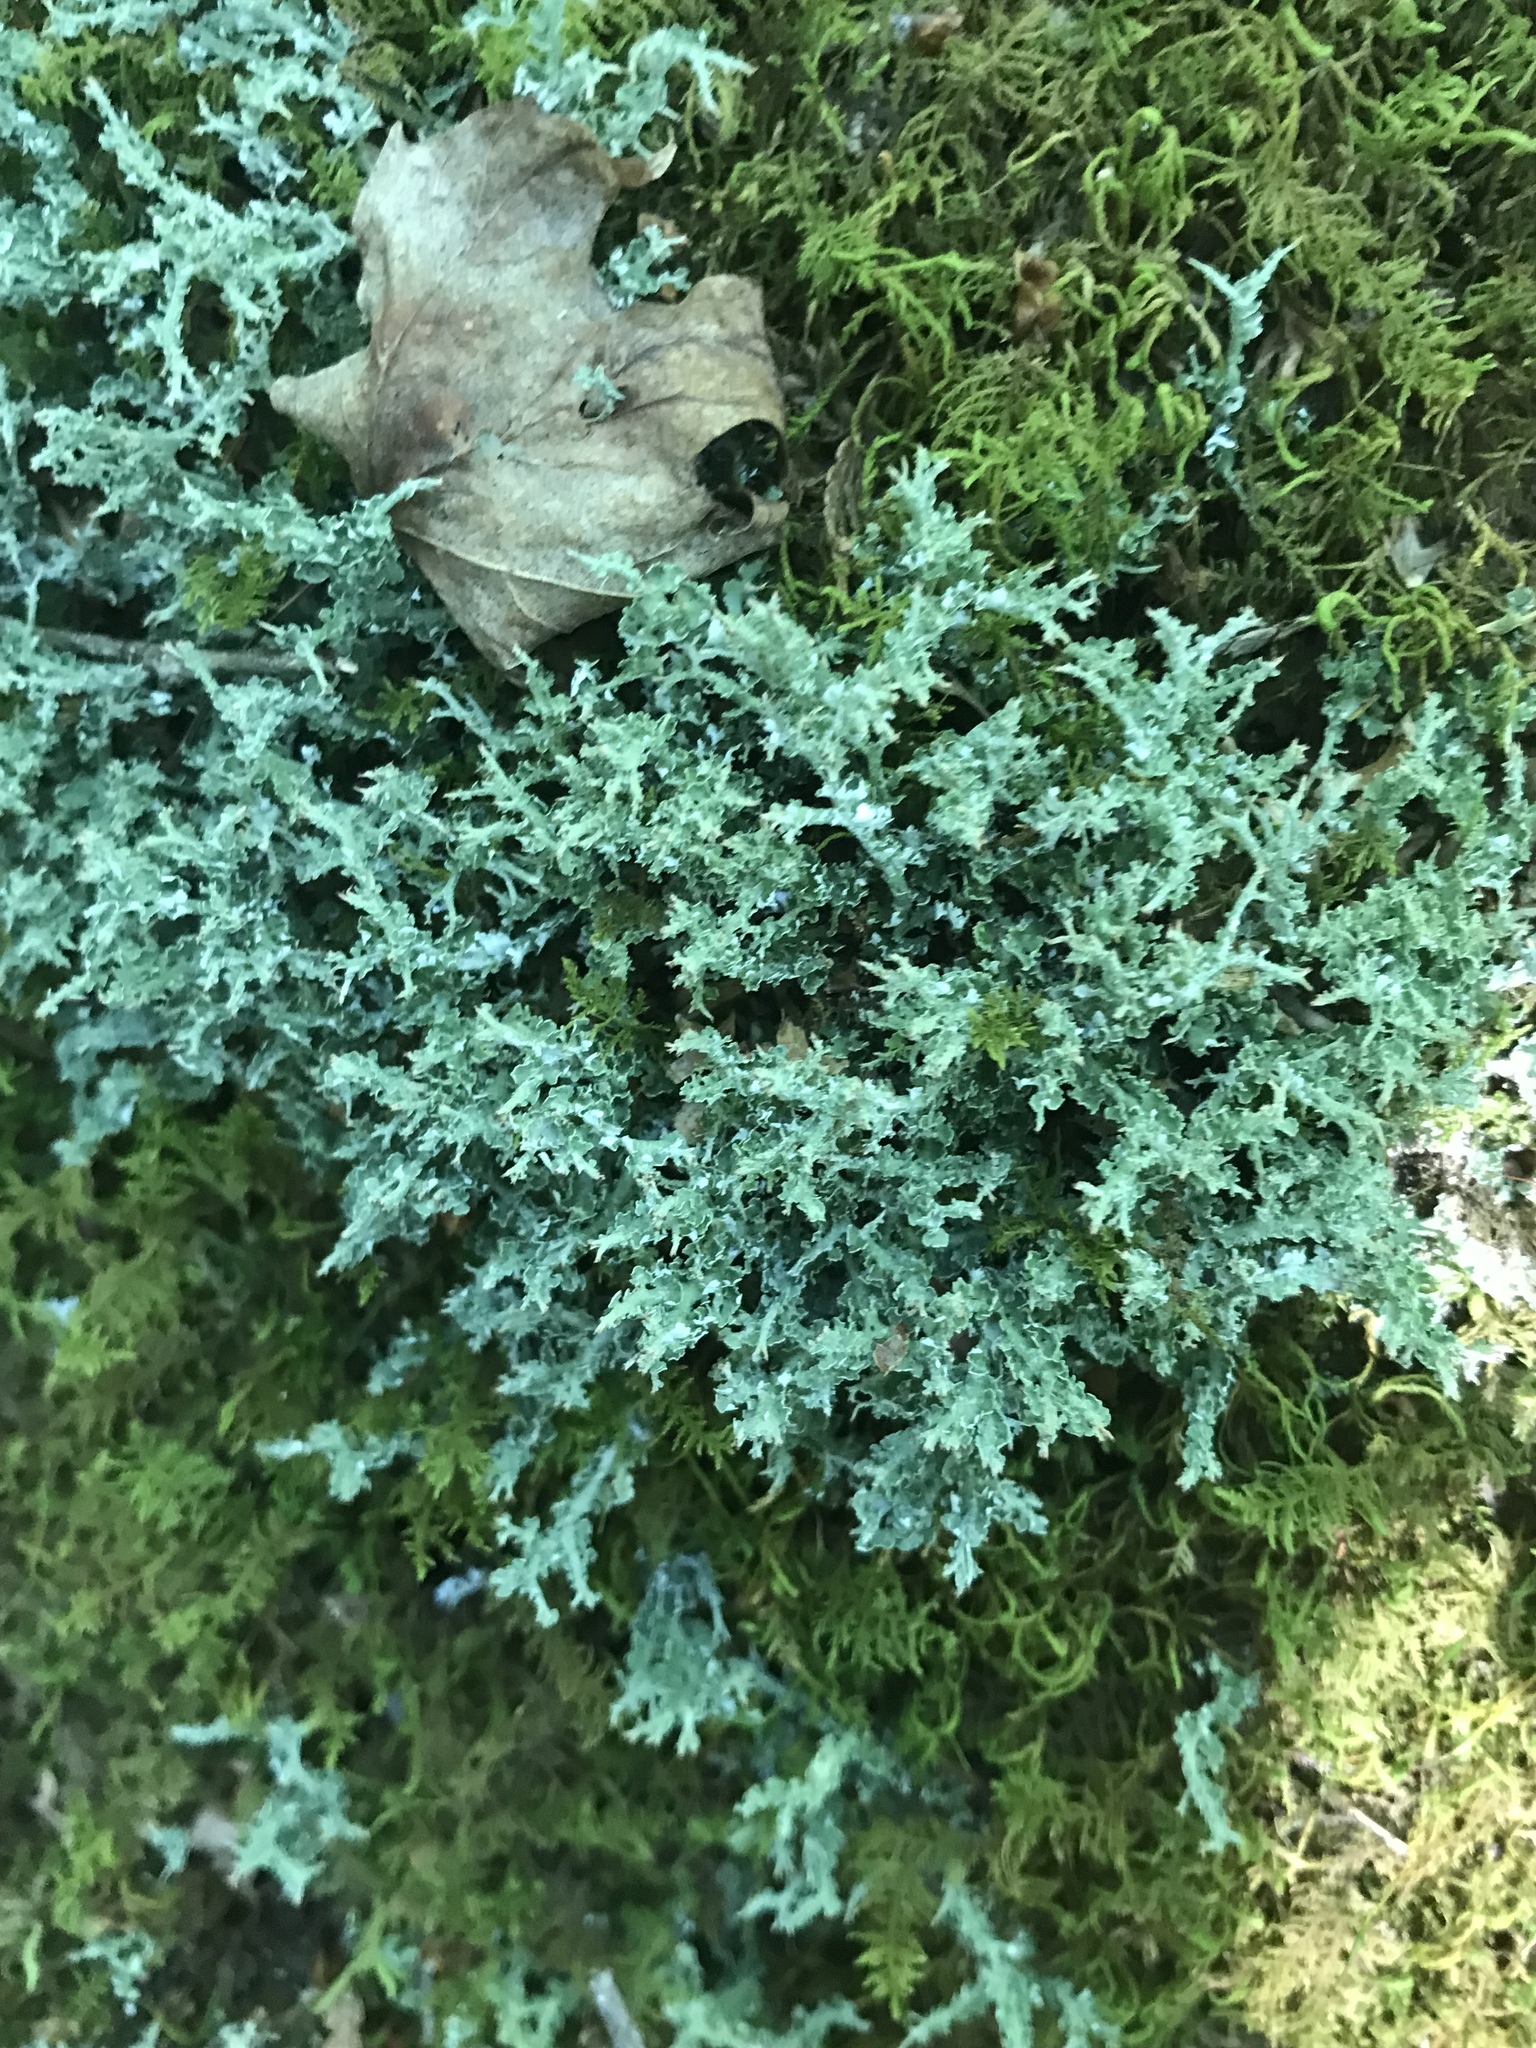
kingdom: Fungi
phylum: Ascomycota
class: Lecanoromycetes
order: Lecanorales
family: Cladoniaceae
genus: Cladonia
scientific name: Cladonia furcata
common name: Many-forked cladonia
